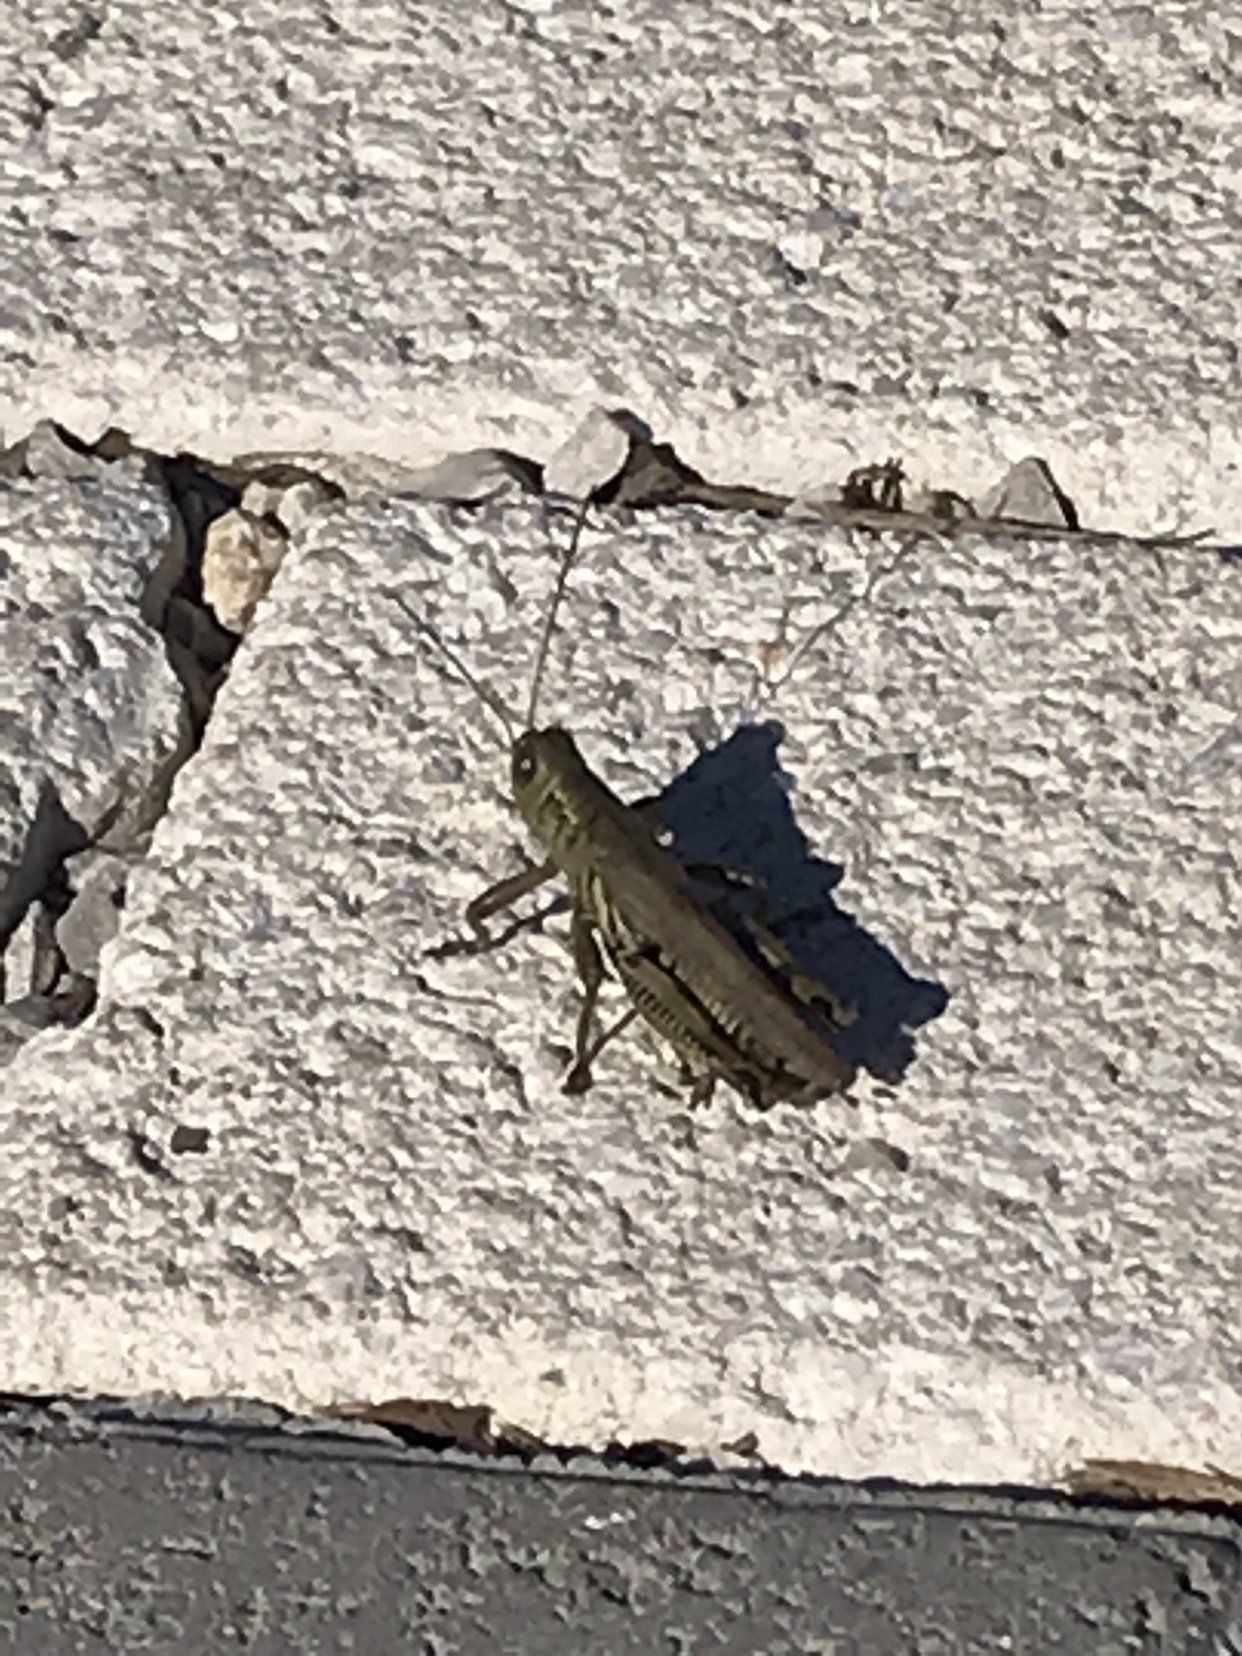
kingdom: Animalia
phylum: Arthropoda
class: Insecta
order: Orthoptera
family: Acrididae
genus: Melanoplus
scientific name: Melanoplus differentialis
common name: Differential grasshopper
